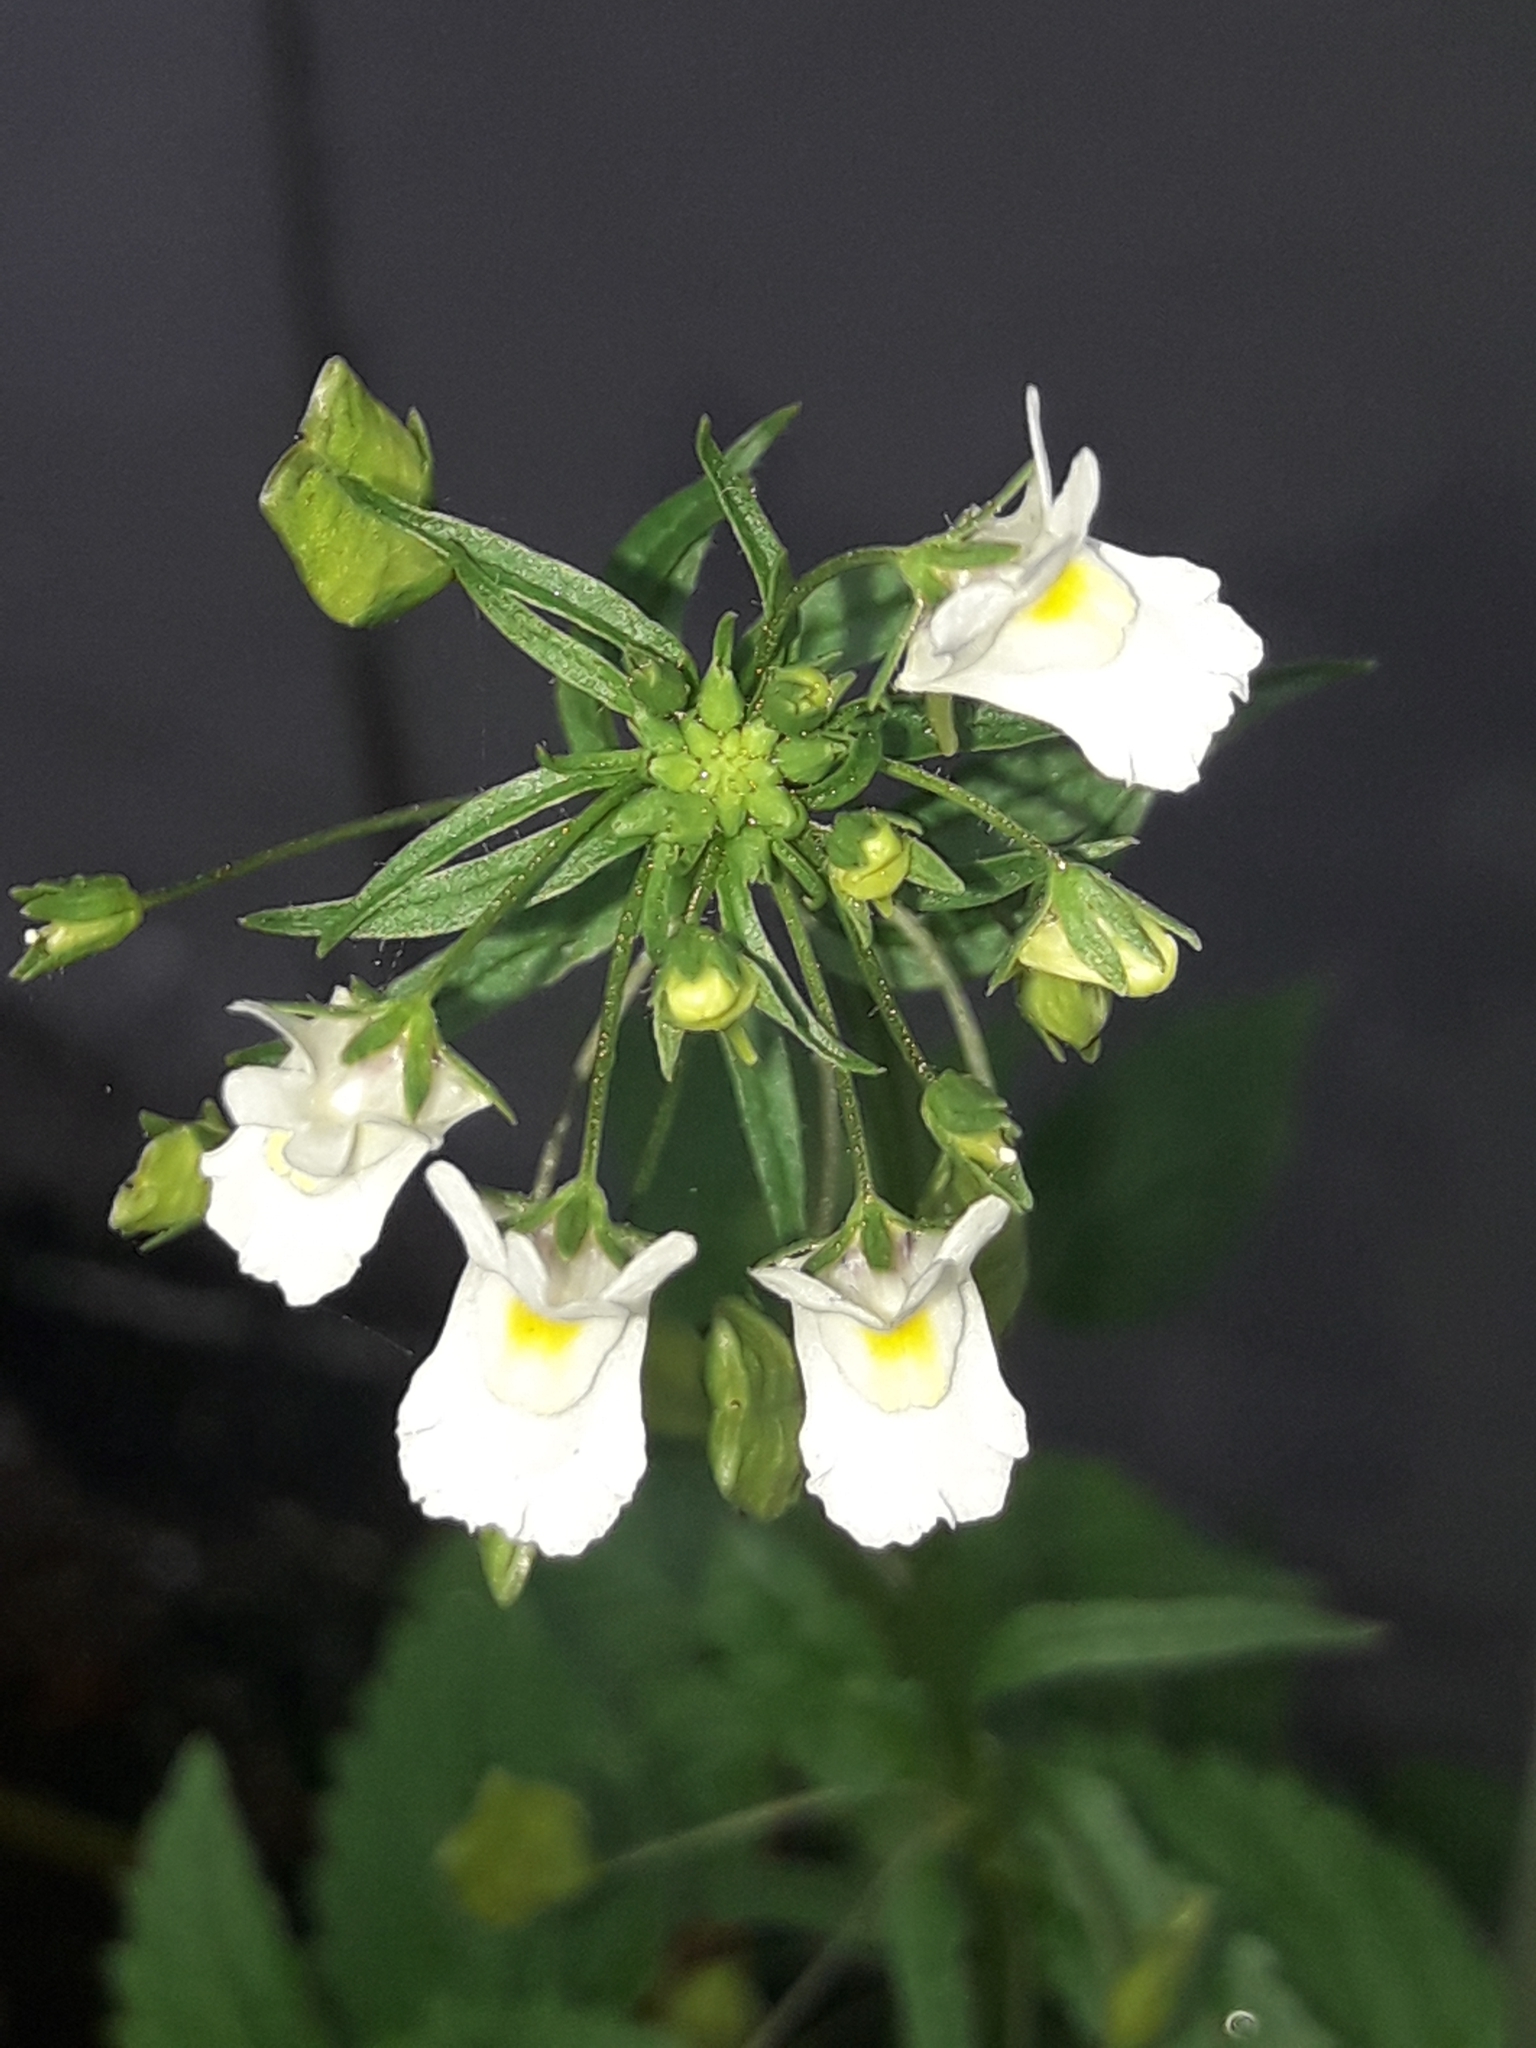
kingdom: Plantae
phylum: Tracheophyta
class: Magnoliopsida
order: Lamiales
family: Scrophulariaceae
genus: Nemesia
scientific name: Nemesia floribunda
